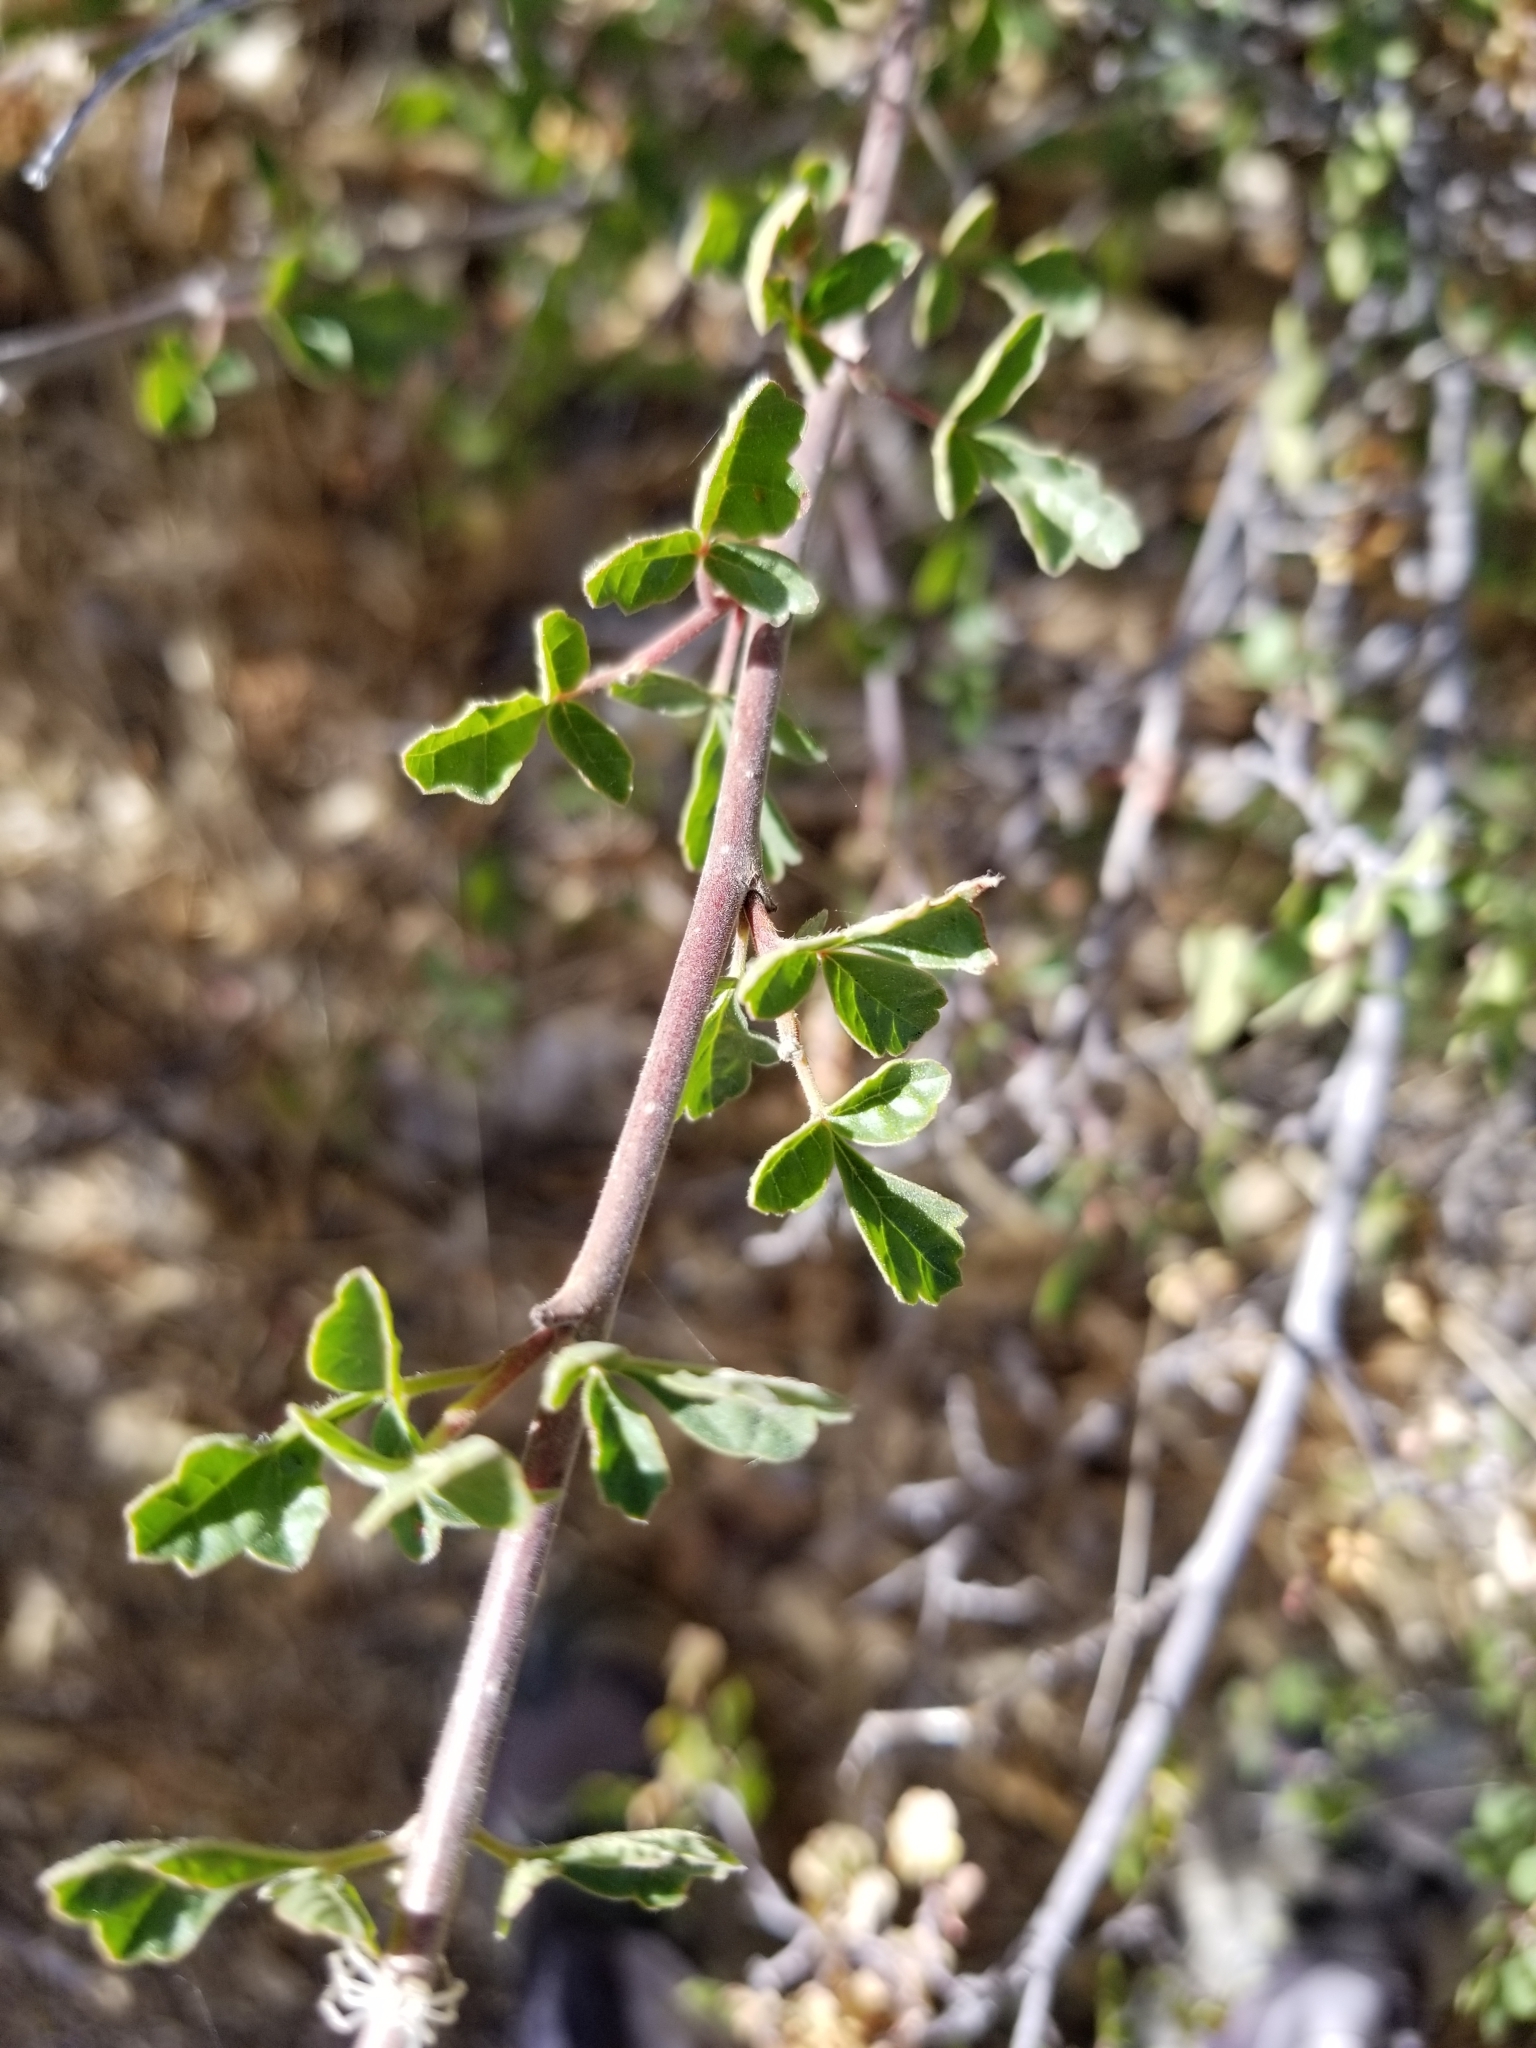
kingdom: Plantae
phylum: Tracheophyta
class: Magnoliopsida
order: Sapindales
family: Anacardiaceae
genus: Rhus
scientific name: Rhus aromatica
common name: Aromatic sumac
